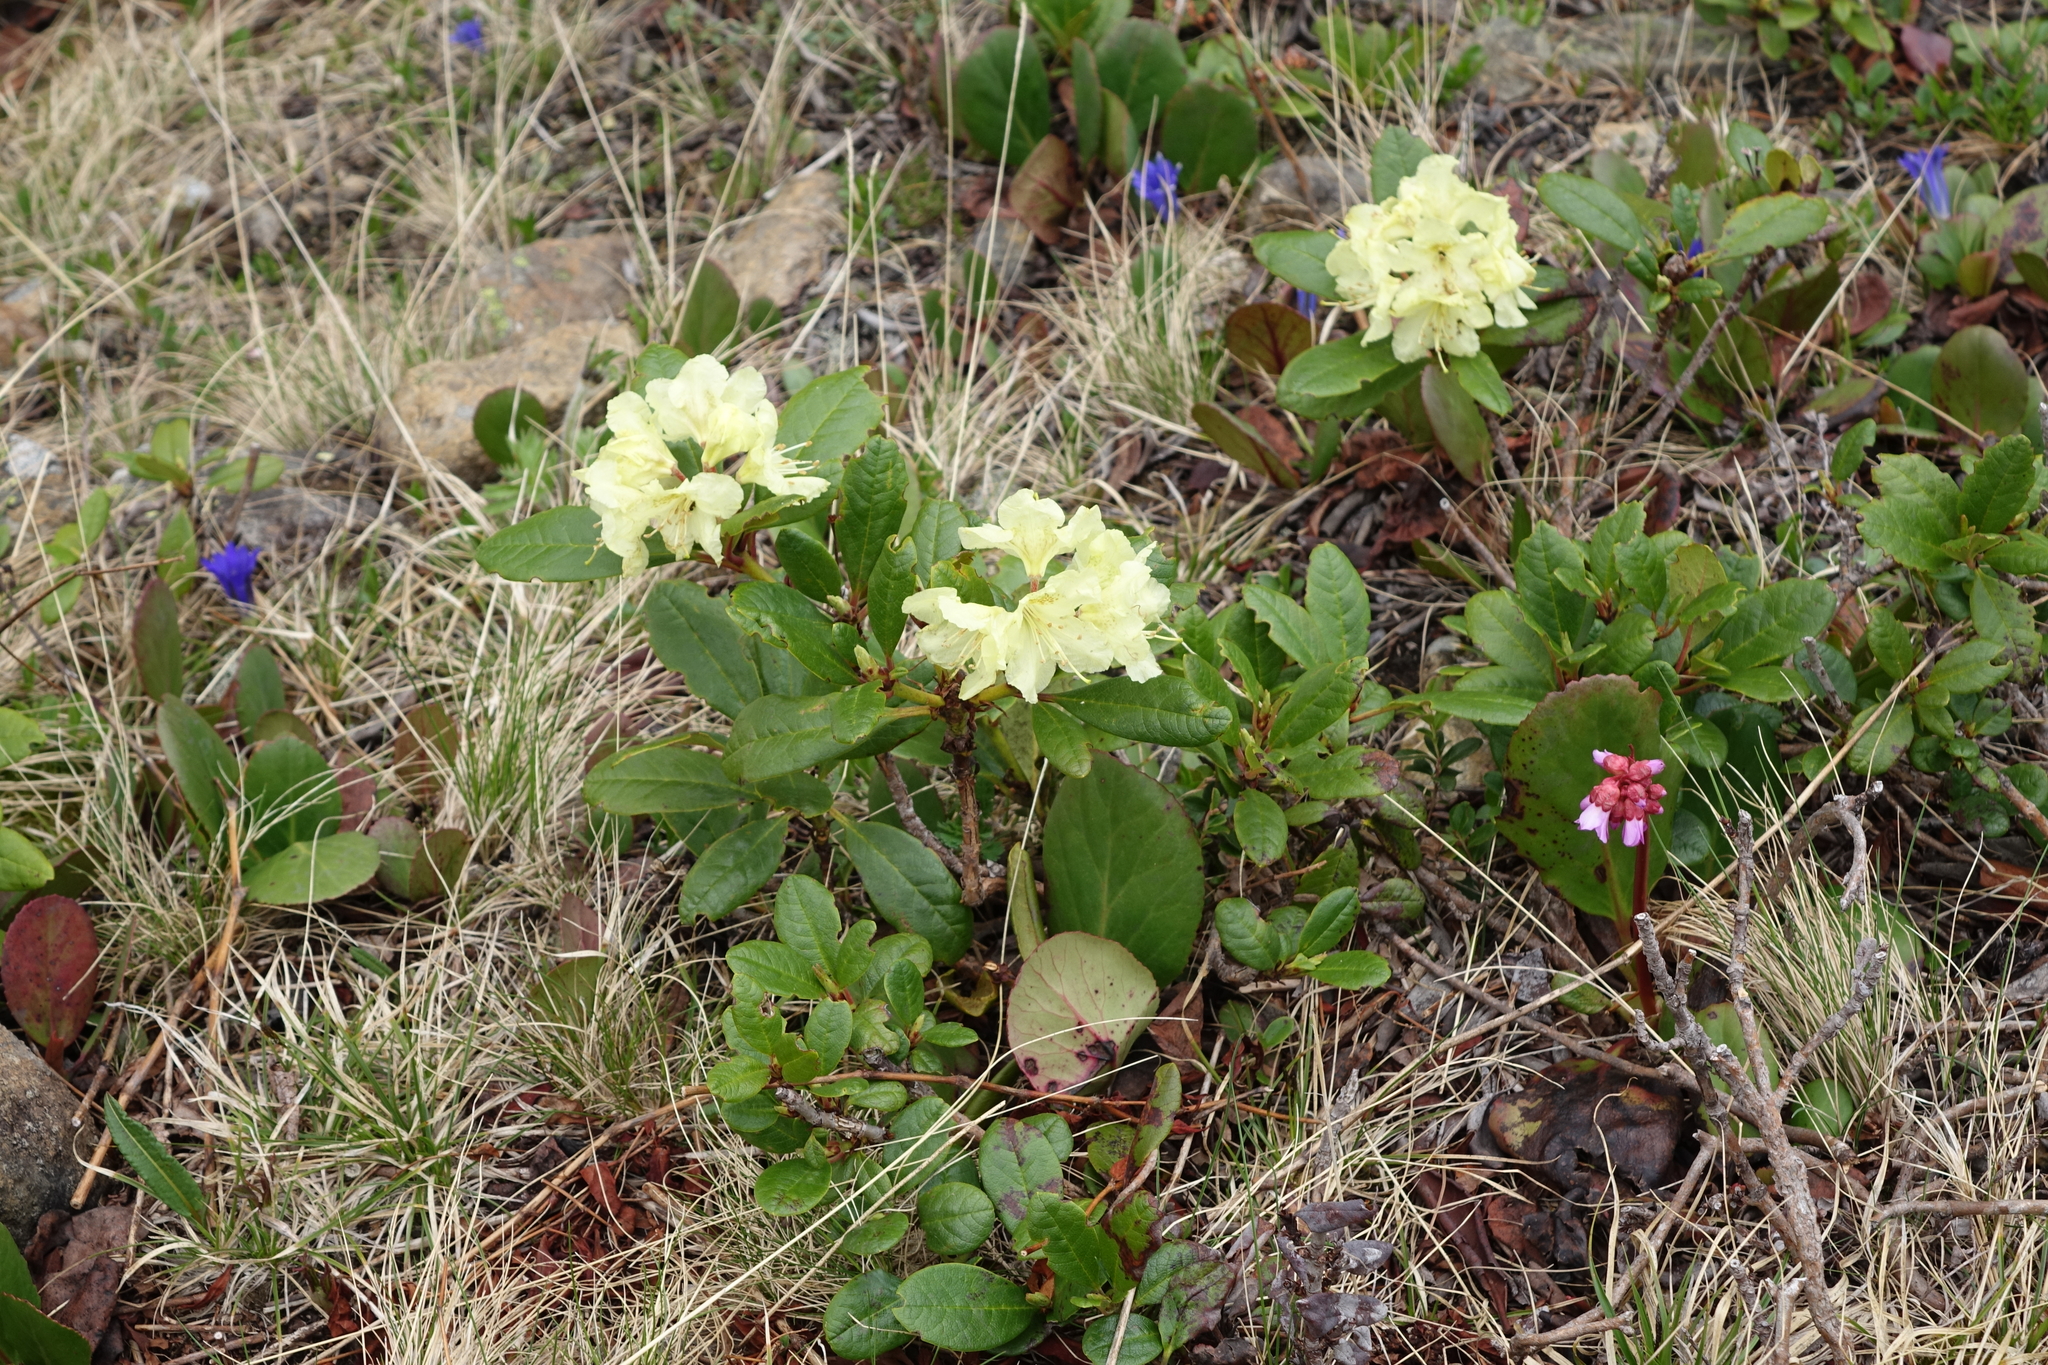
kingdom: Plantae
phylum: Tracheophyta
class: Magnoliopsida
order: Ericales
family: Ericaceae
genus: Rhododendron
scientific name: Rhododendron aureum
